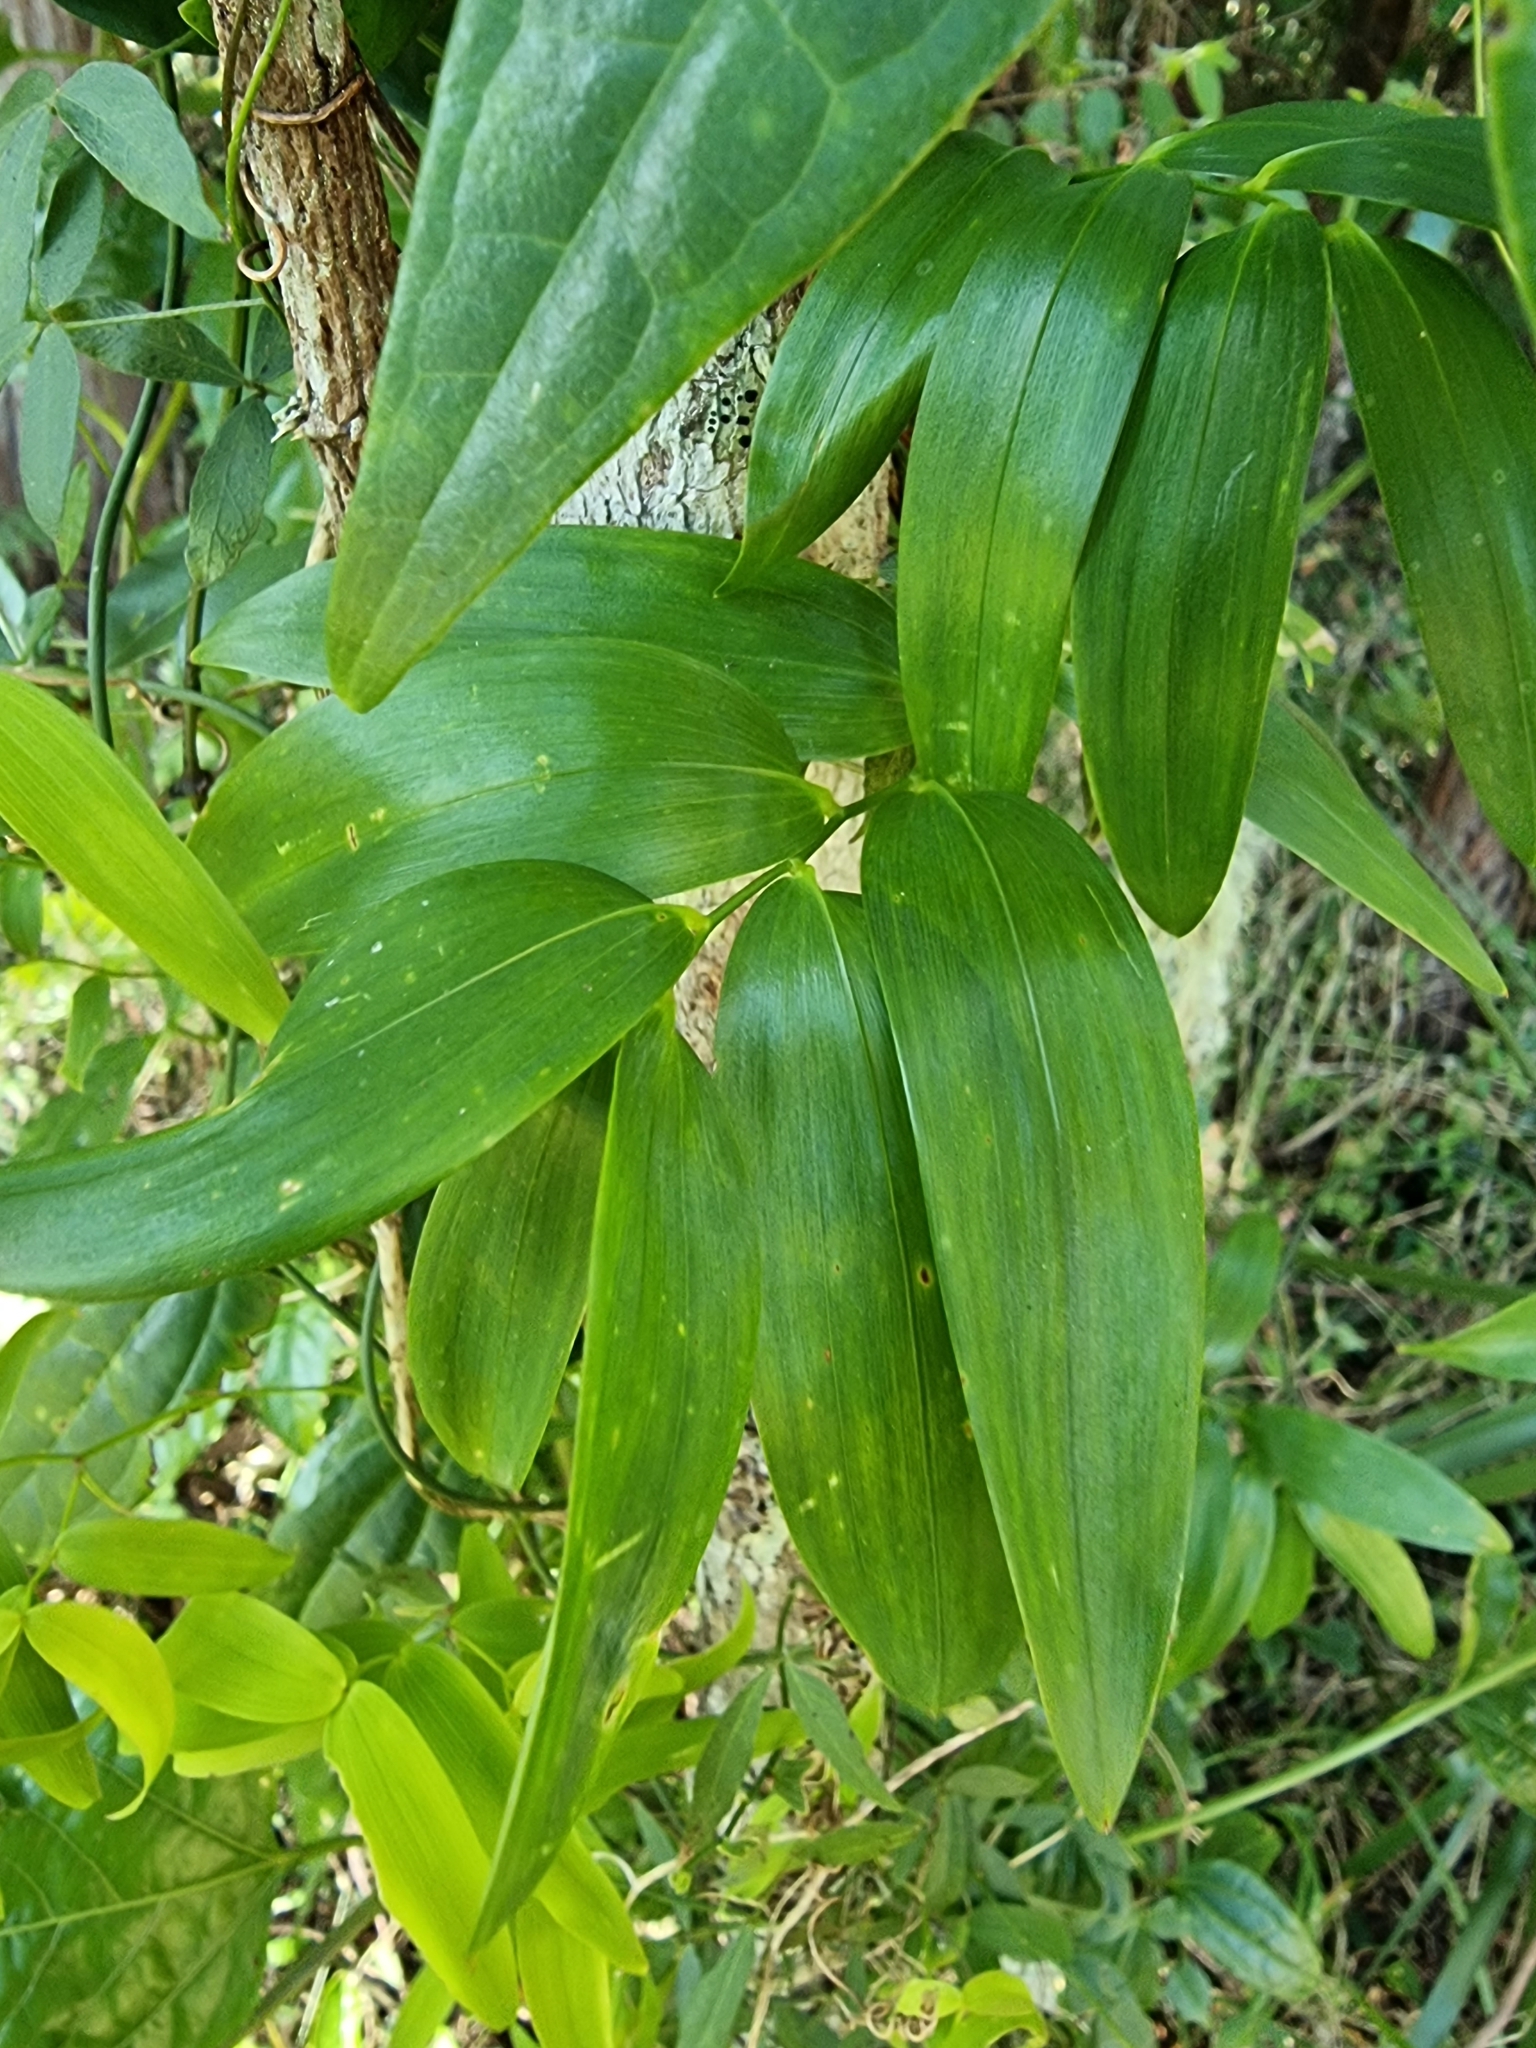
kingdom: Plantae
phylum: Tracheophyta
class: Liliopsida
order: Asparagales
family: Asphodelaceae
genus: Geitonoplesium
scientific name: Geitonoplesium cymosum
